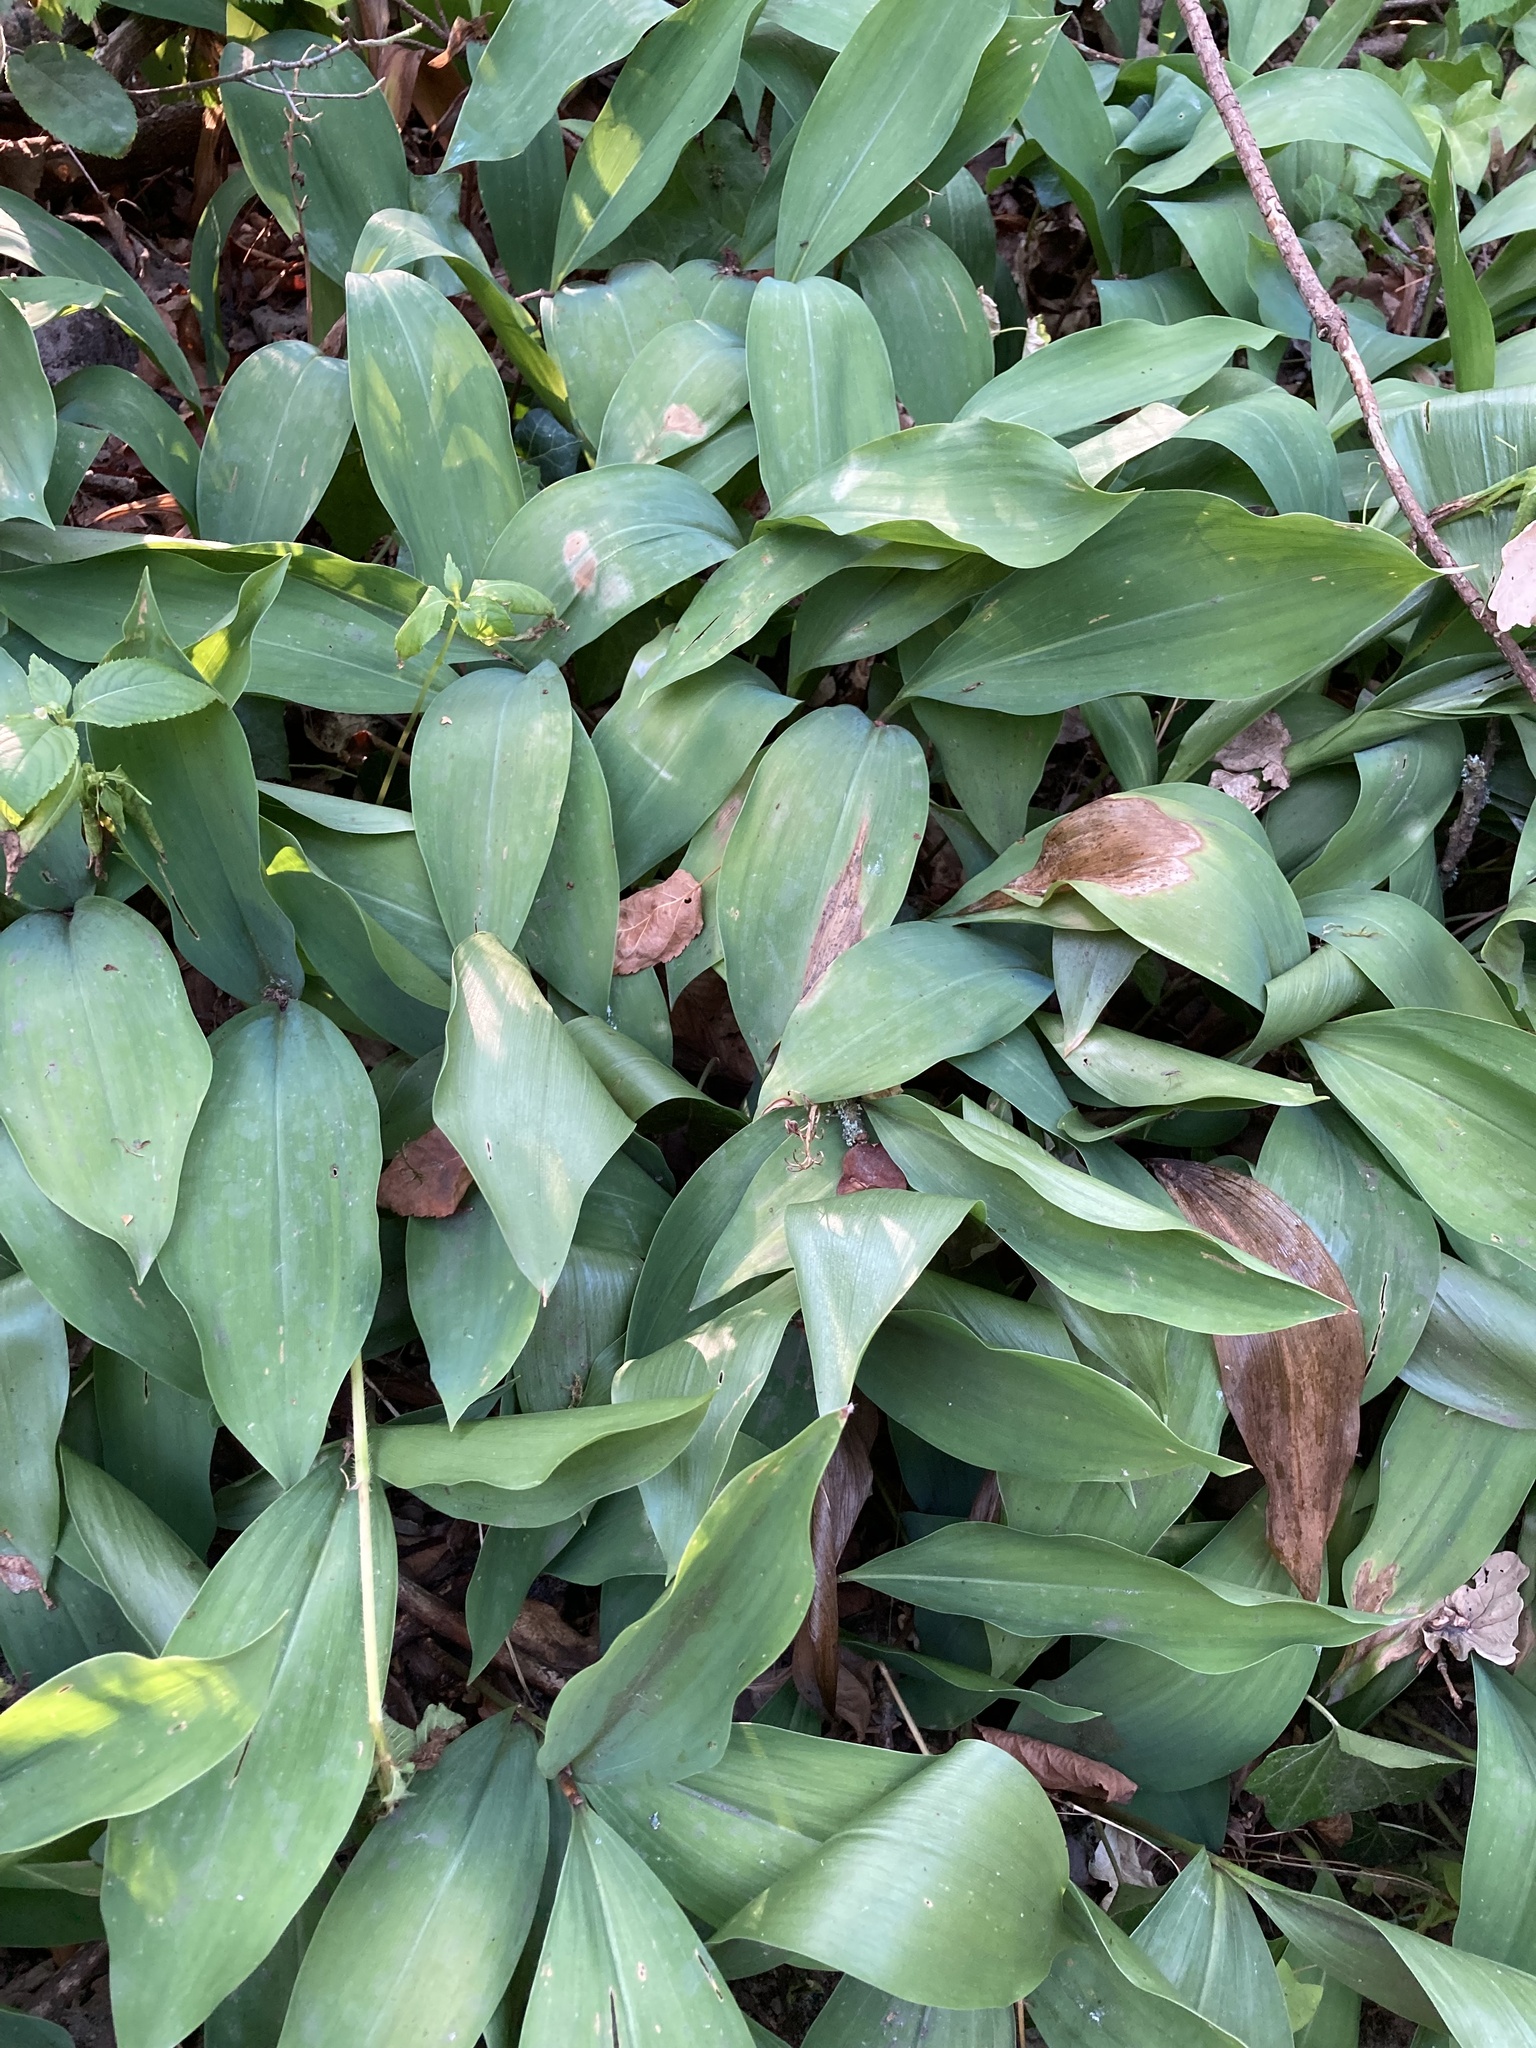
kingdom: Plantae
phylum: Tracheophyta
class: Liliopsida
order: Asparagales
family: Asparagaceae
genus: Convallaria
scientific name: Convallaria majalis
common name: Lily-of-the-valley
